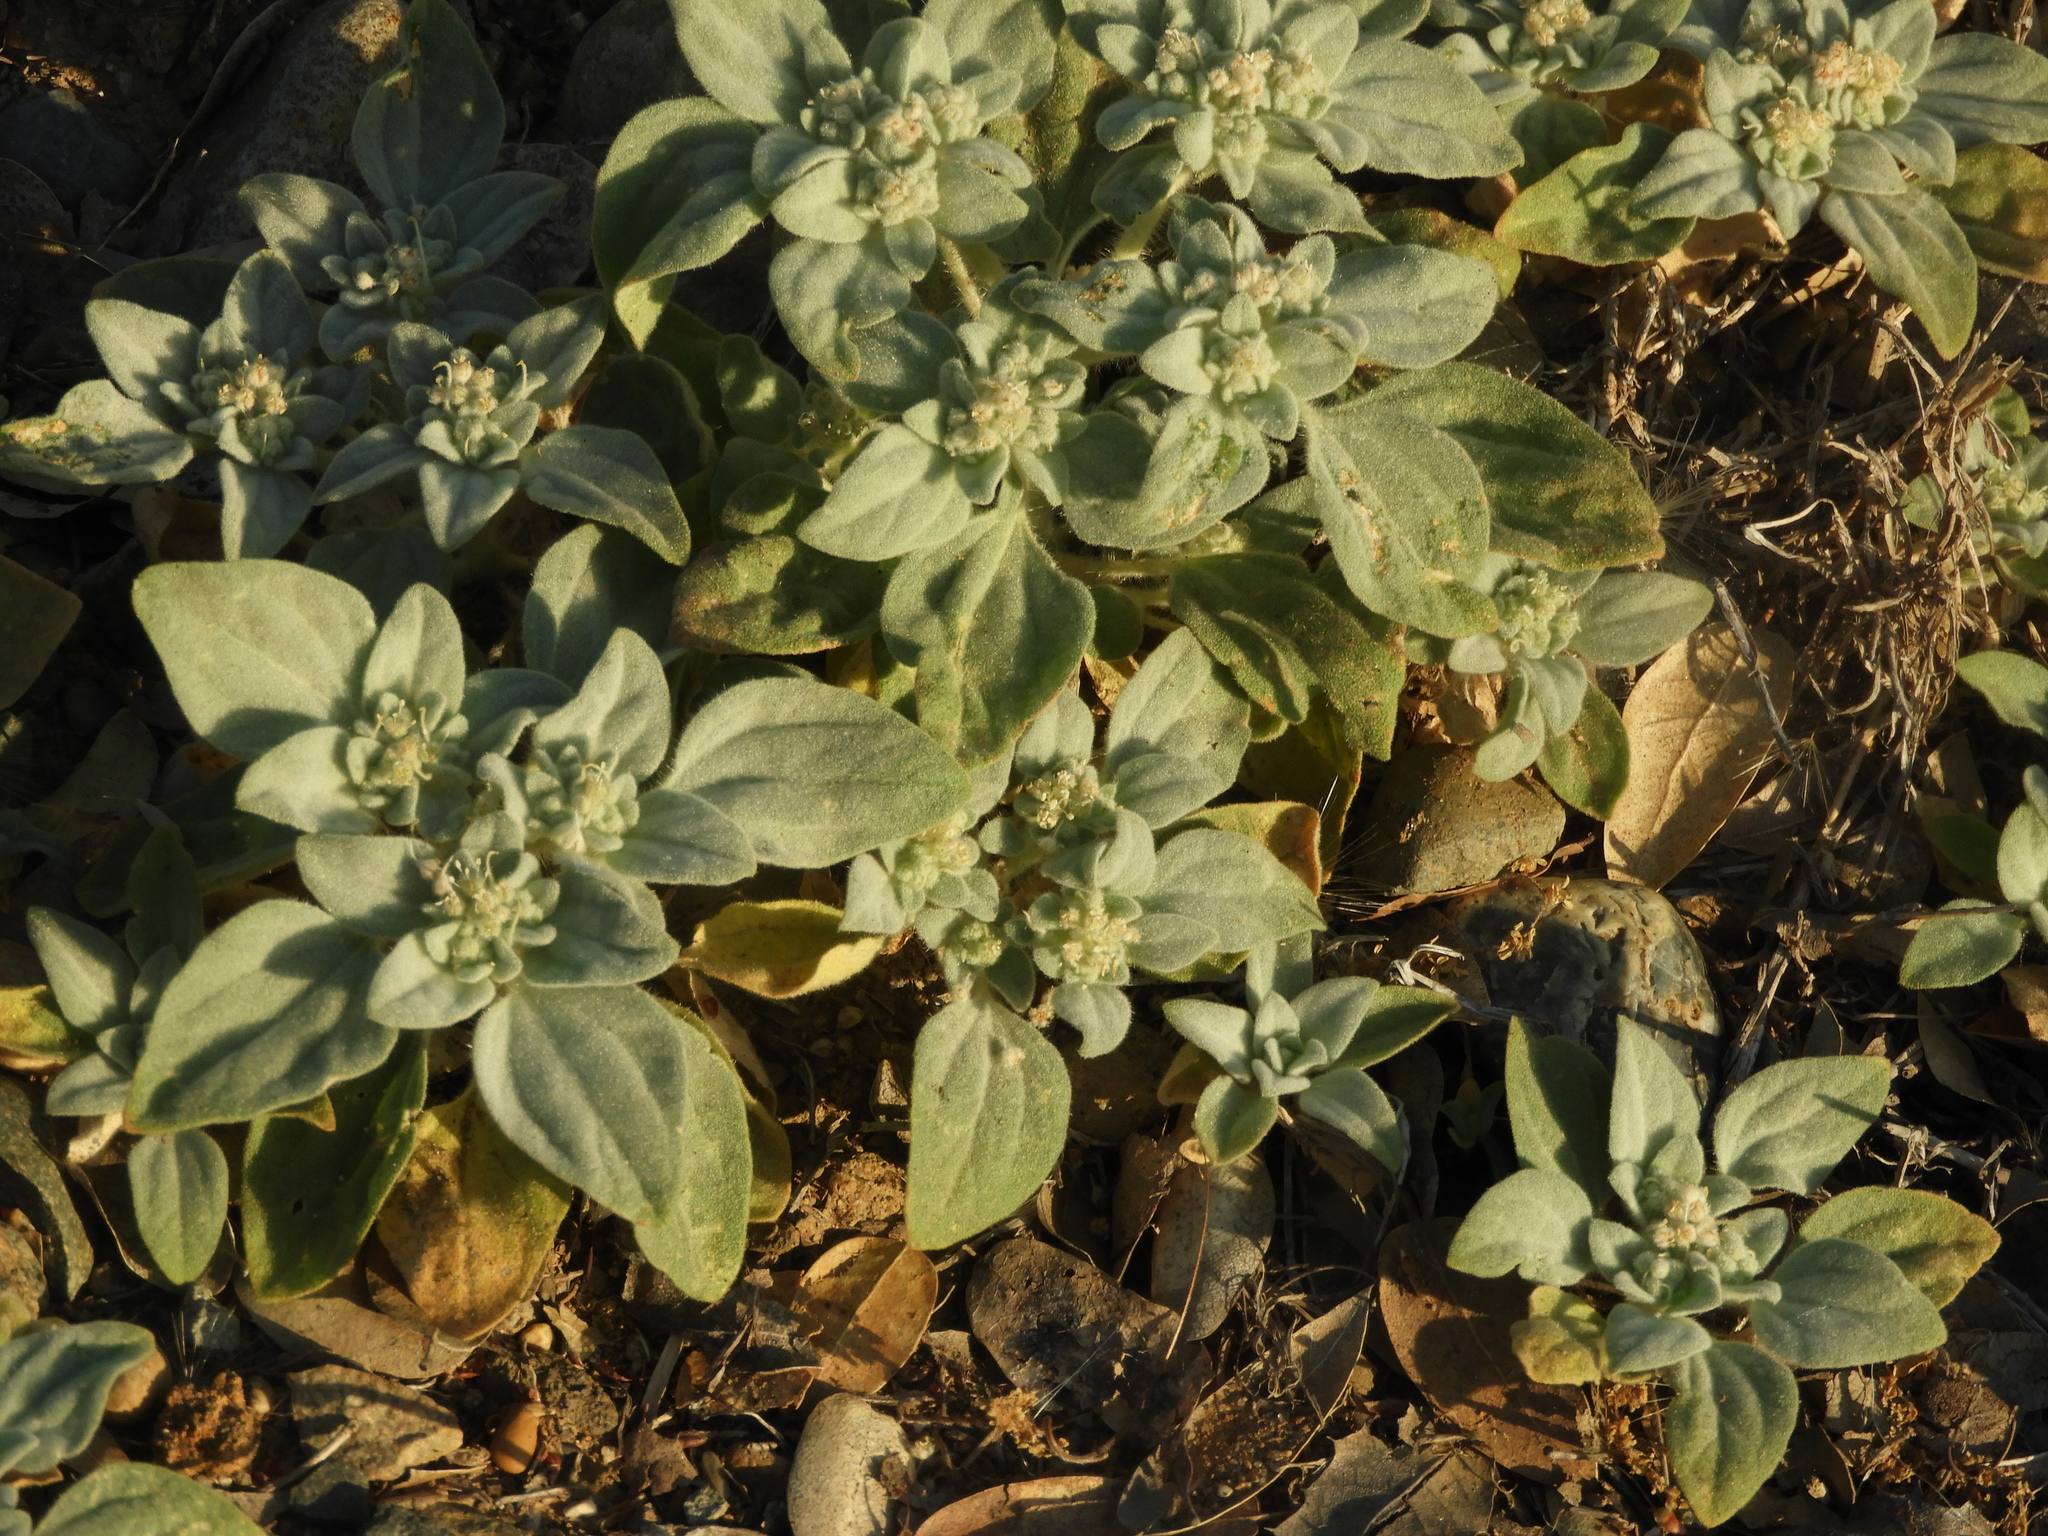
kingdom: Plantae
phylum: Tracheophyta
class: Magnoliopsida
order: Malpighiales
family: Euphorbiaceae
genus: Croton
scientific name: Croton setiger
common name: Dove weed
